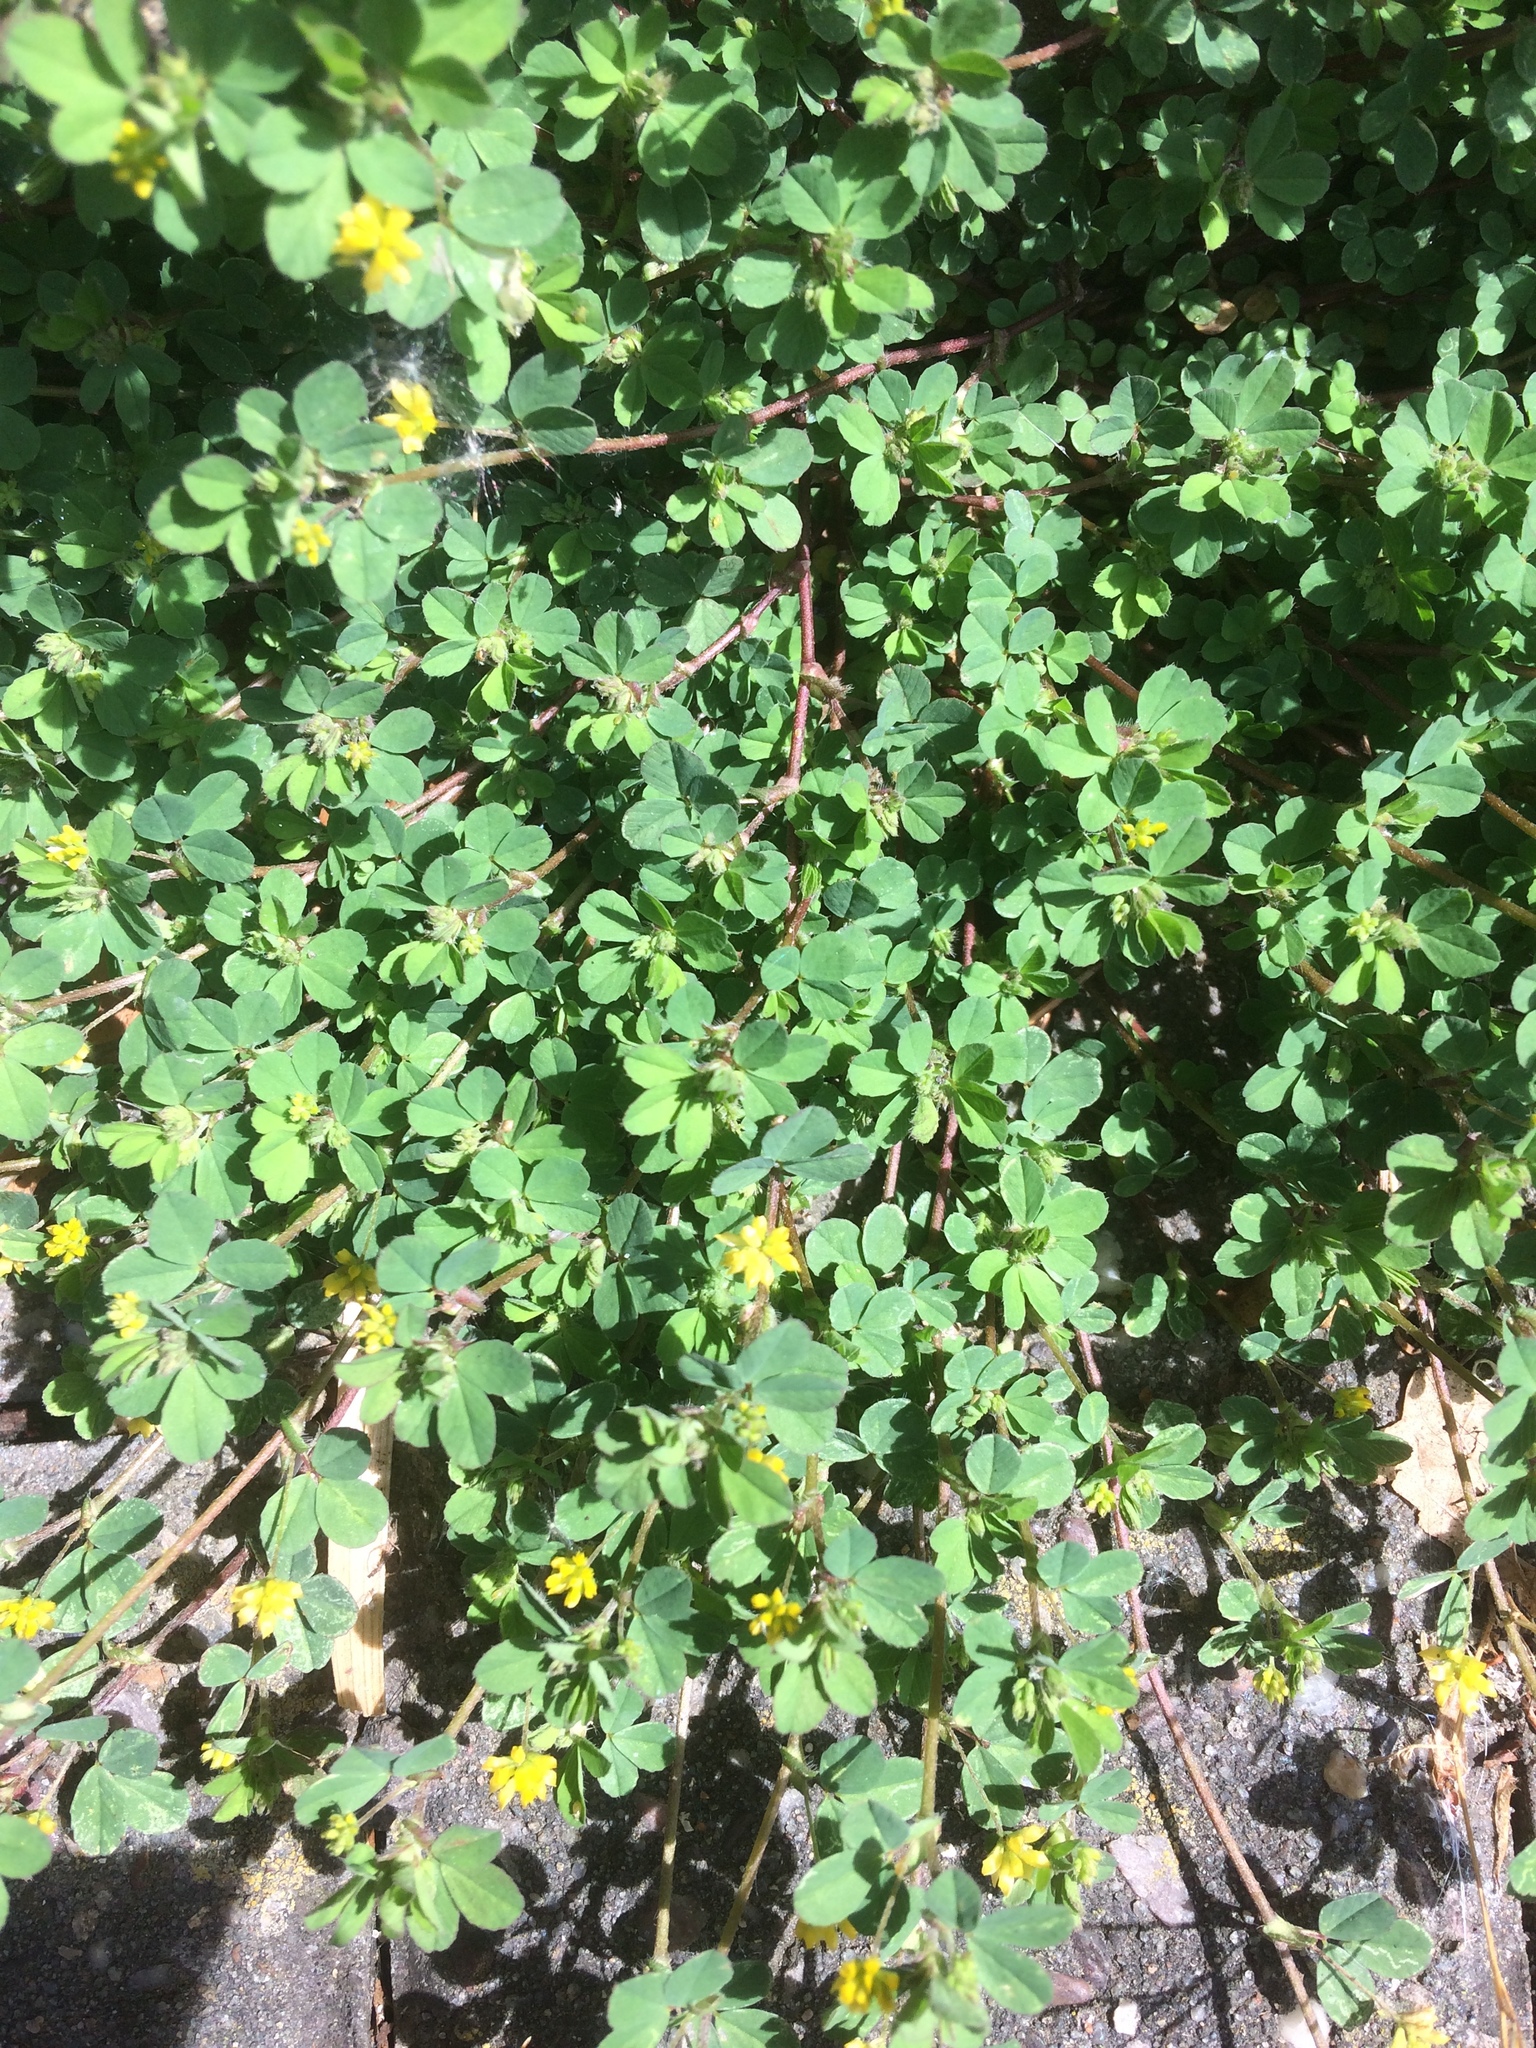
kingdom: Plantae
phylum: Tracheophyta
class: Magnoliopsida
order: Fabales
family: Fabaceae
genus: Trifolium
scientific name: Trifolium dubium
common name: Suckling clover
